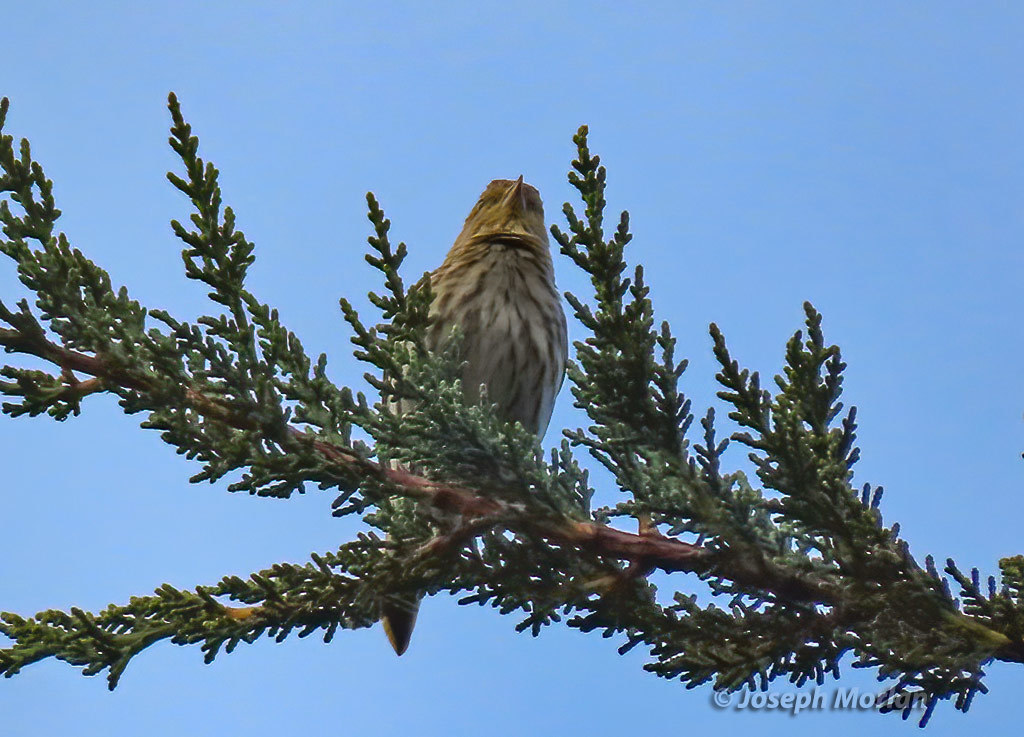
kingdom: Animalia
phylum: Chordata
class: Aves
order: Passeriformes
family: Fringillidae
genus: Spinus
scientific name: Spinus pinus
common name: Pine siskin
